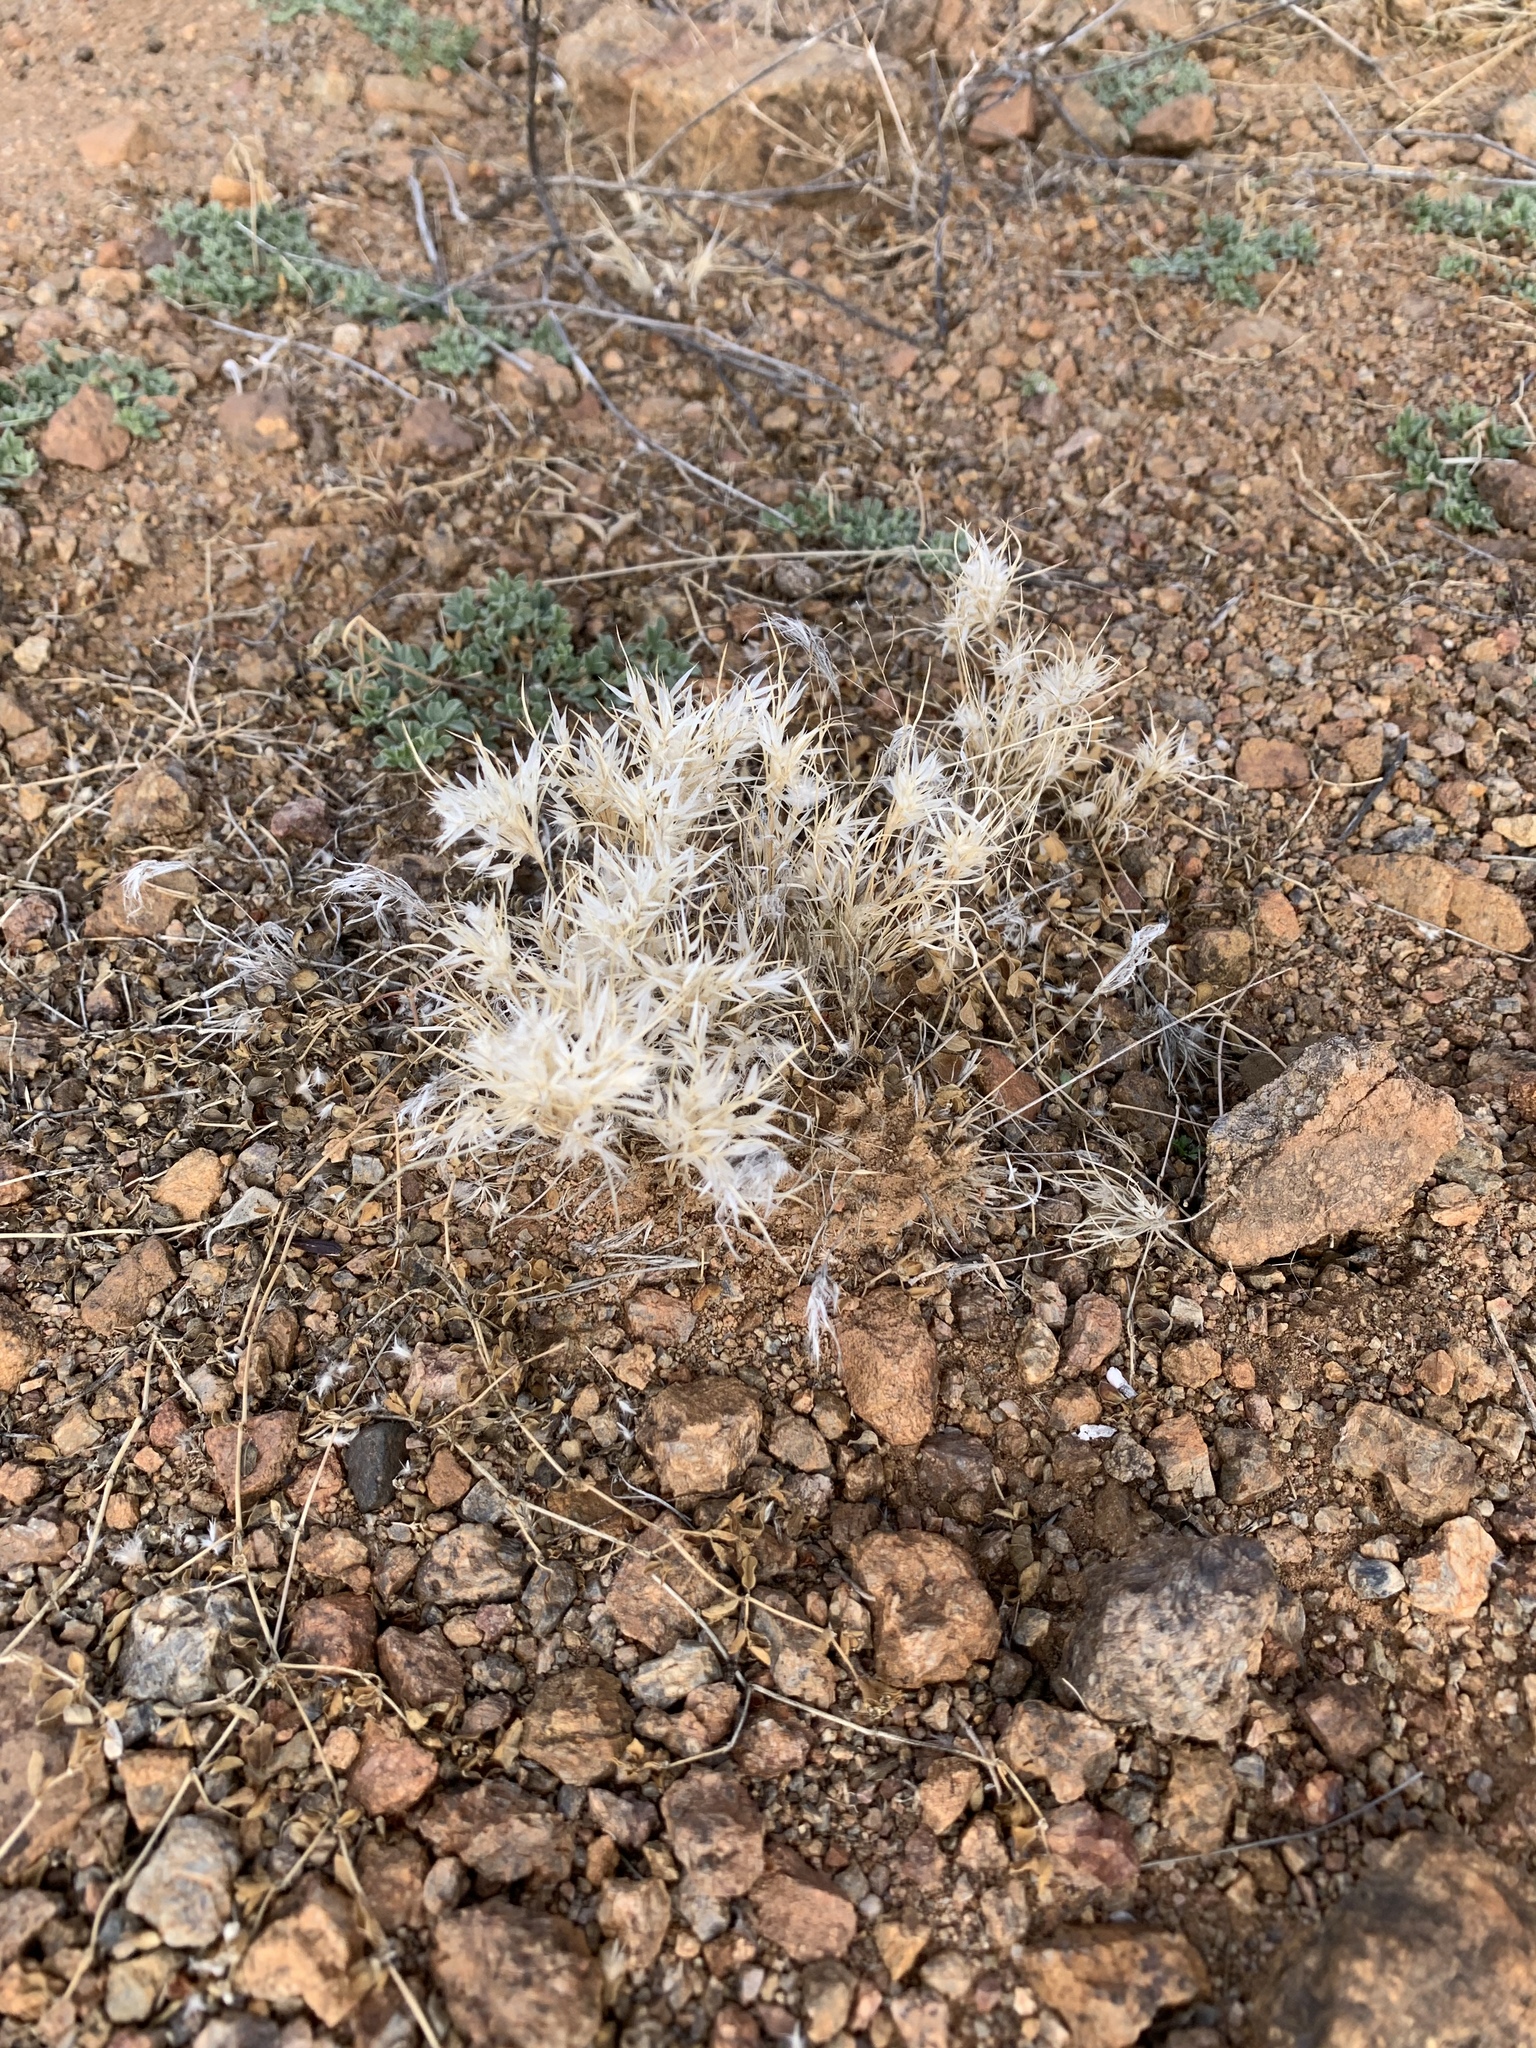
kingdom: Plantae
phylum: Tracheophyta
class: Liliopsida
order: Poales
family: Poaceae
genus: Dasyochloa
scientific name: Dasyochloa pulchella
